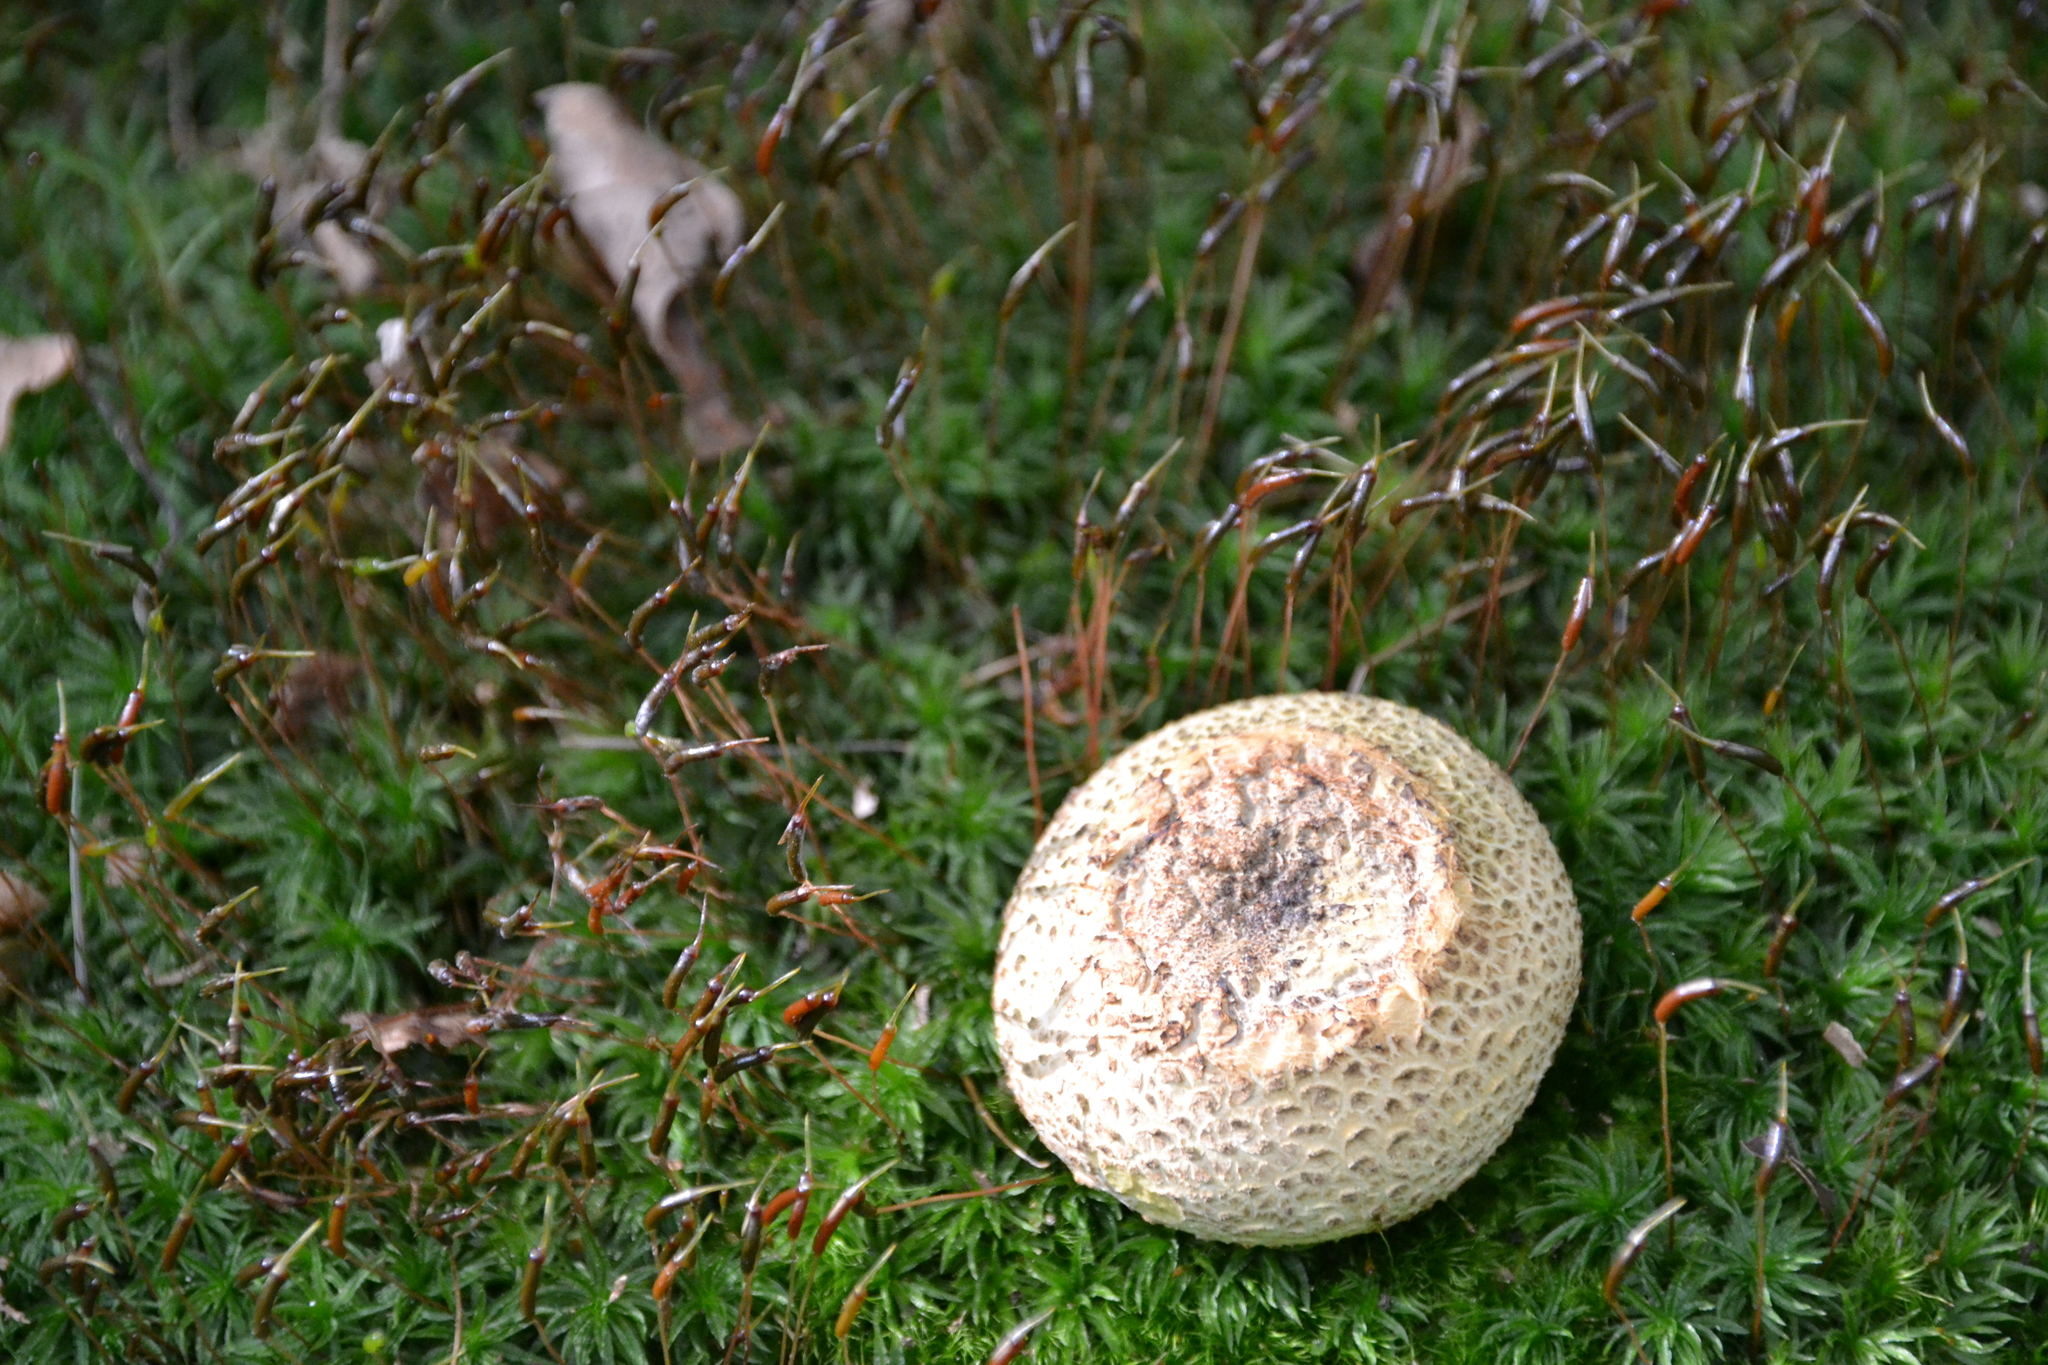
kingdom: Plantae
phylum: Bryophyta
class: Polytrichopsida
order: Polytrichales
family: Polytrichaceae
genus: Atrichum
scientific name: Atrichum undulatum
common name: Common smoothcap
